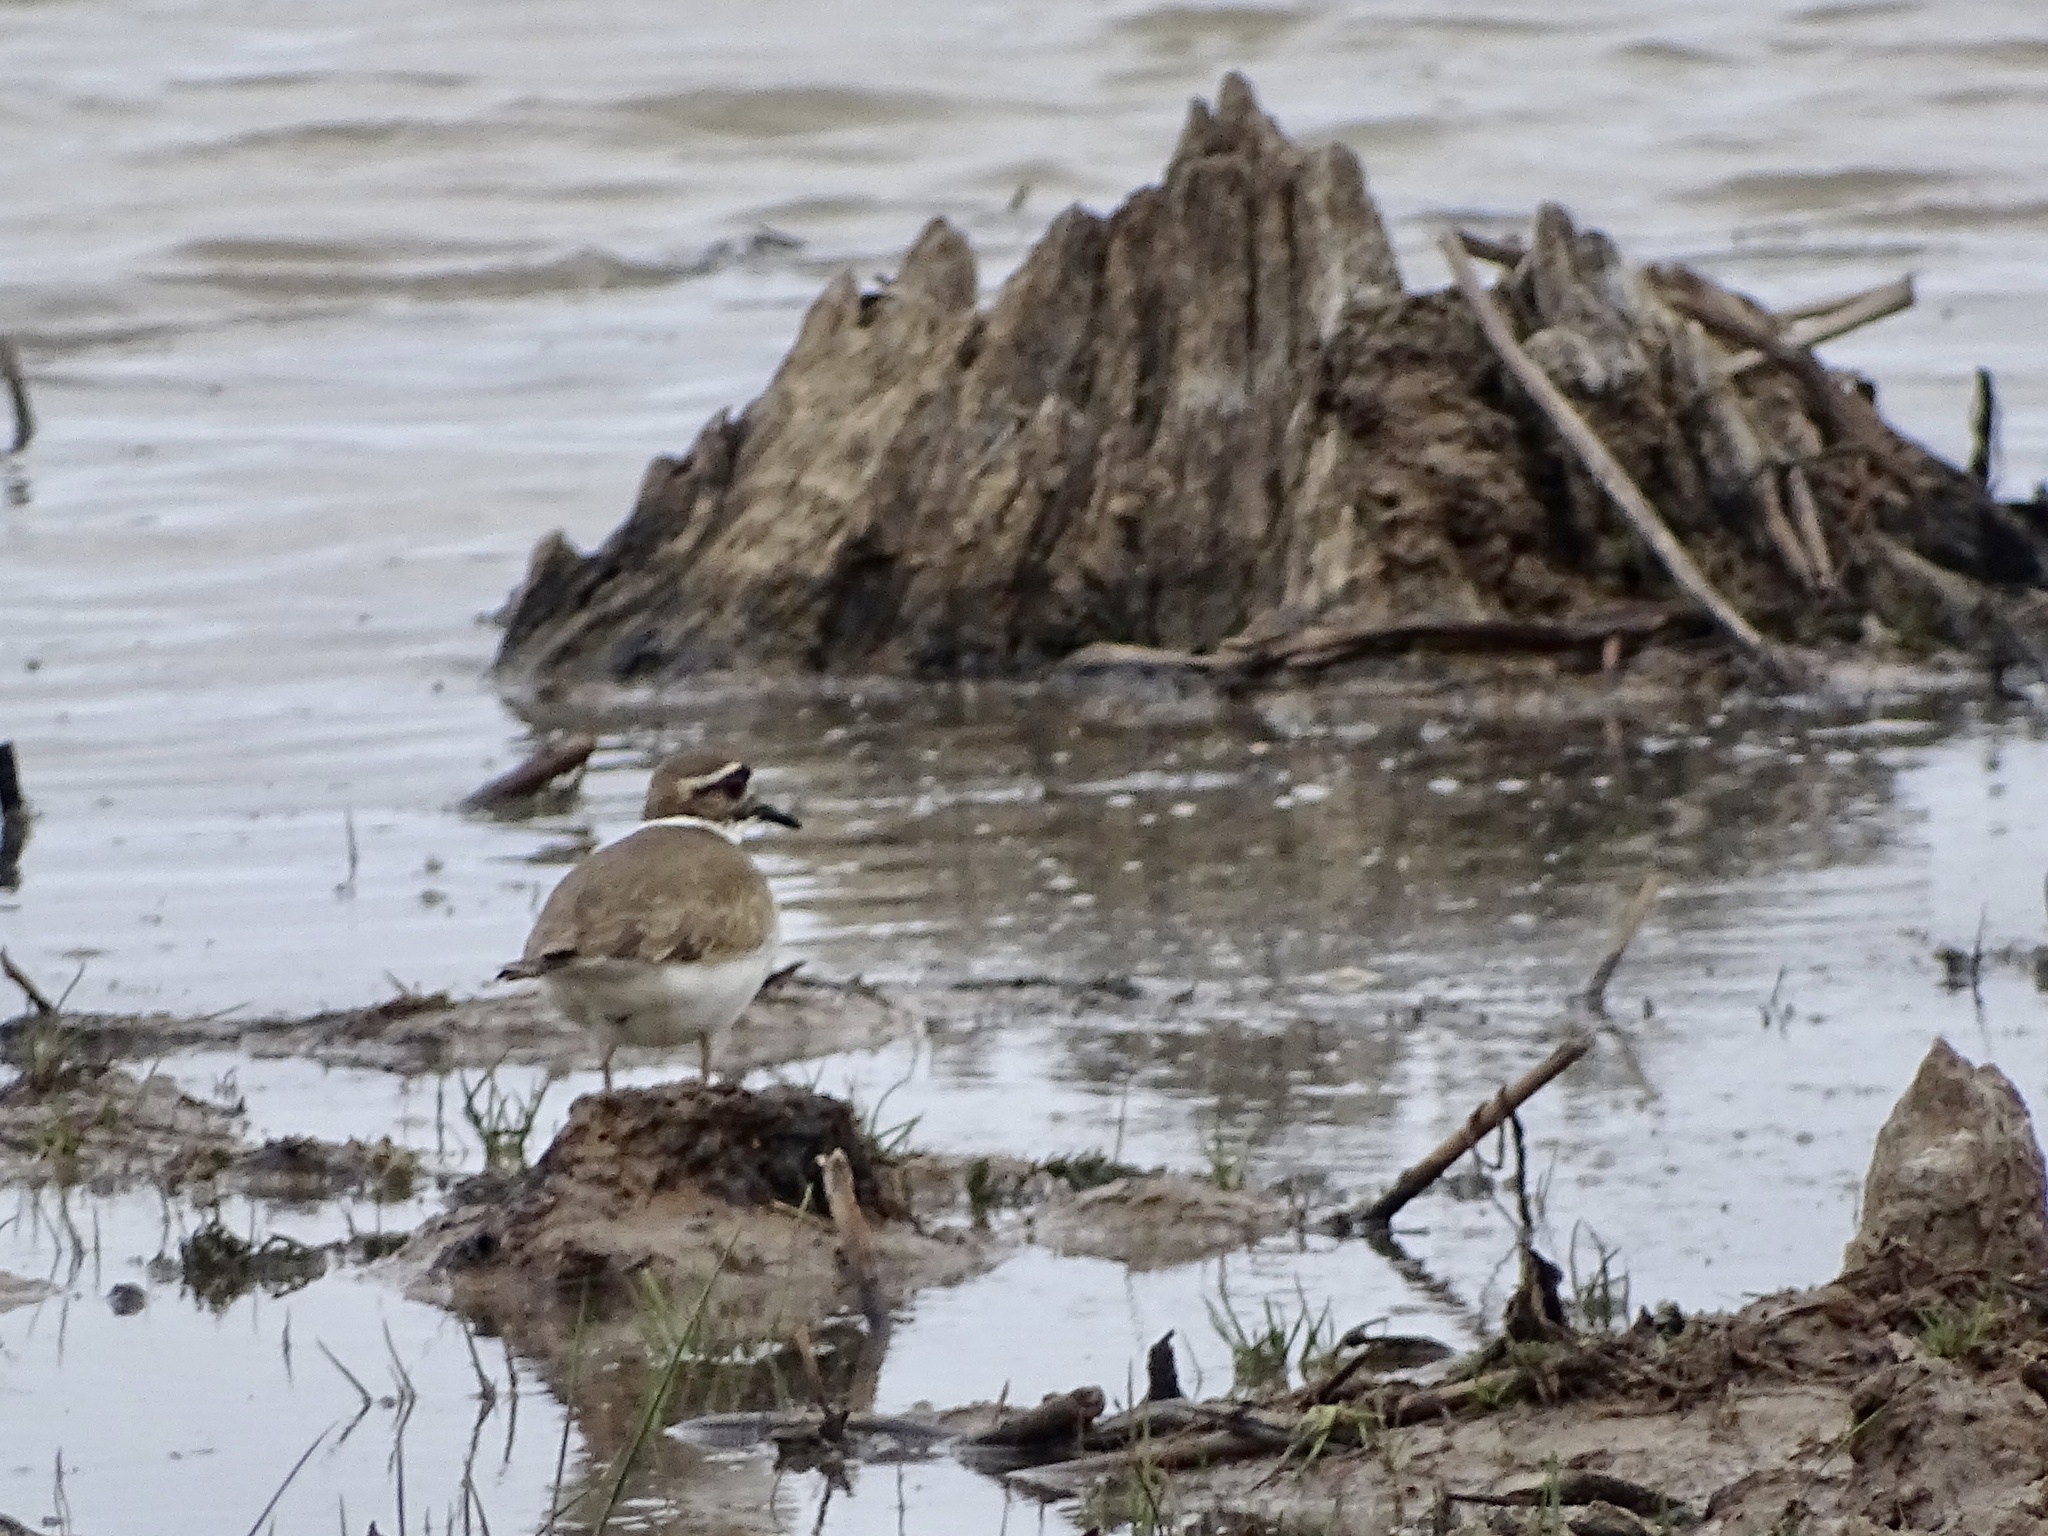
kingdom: Animalia
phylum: Chordata
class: Aves
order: Charadriiformes
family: Charadriidae
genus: Charadrius
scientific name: Charadrius vociferus
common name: Killdeer
